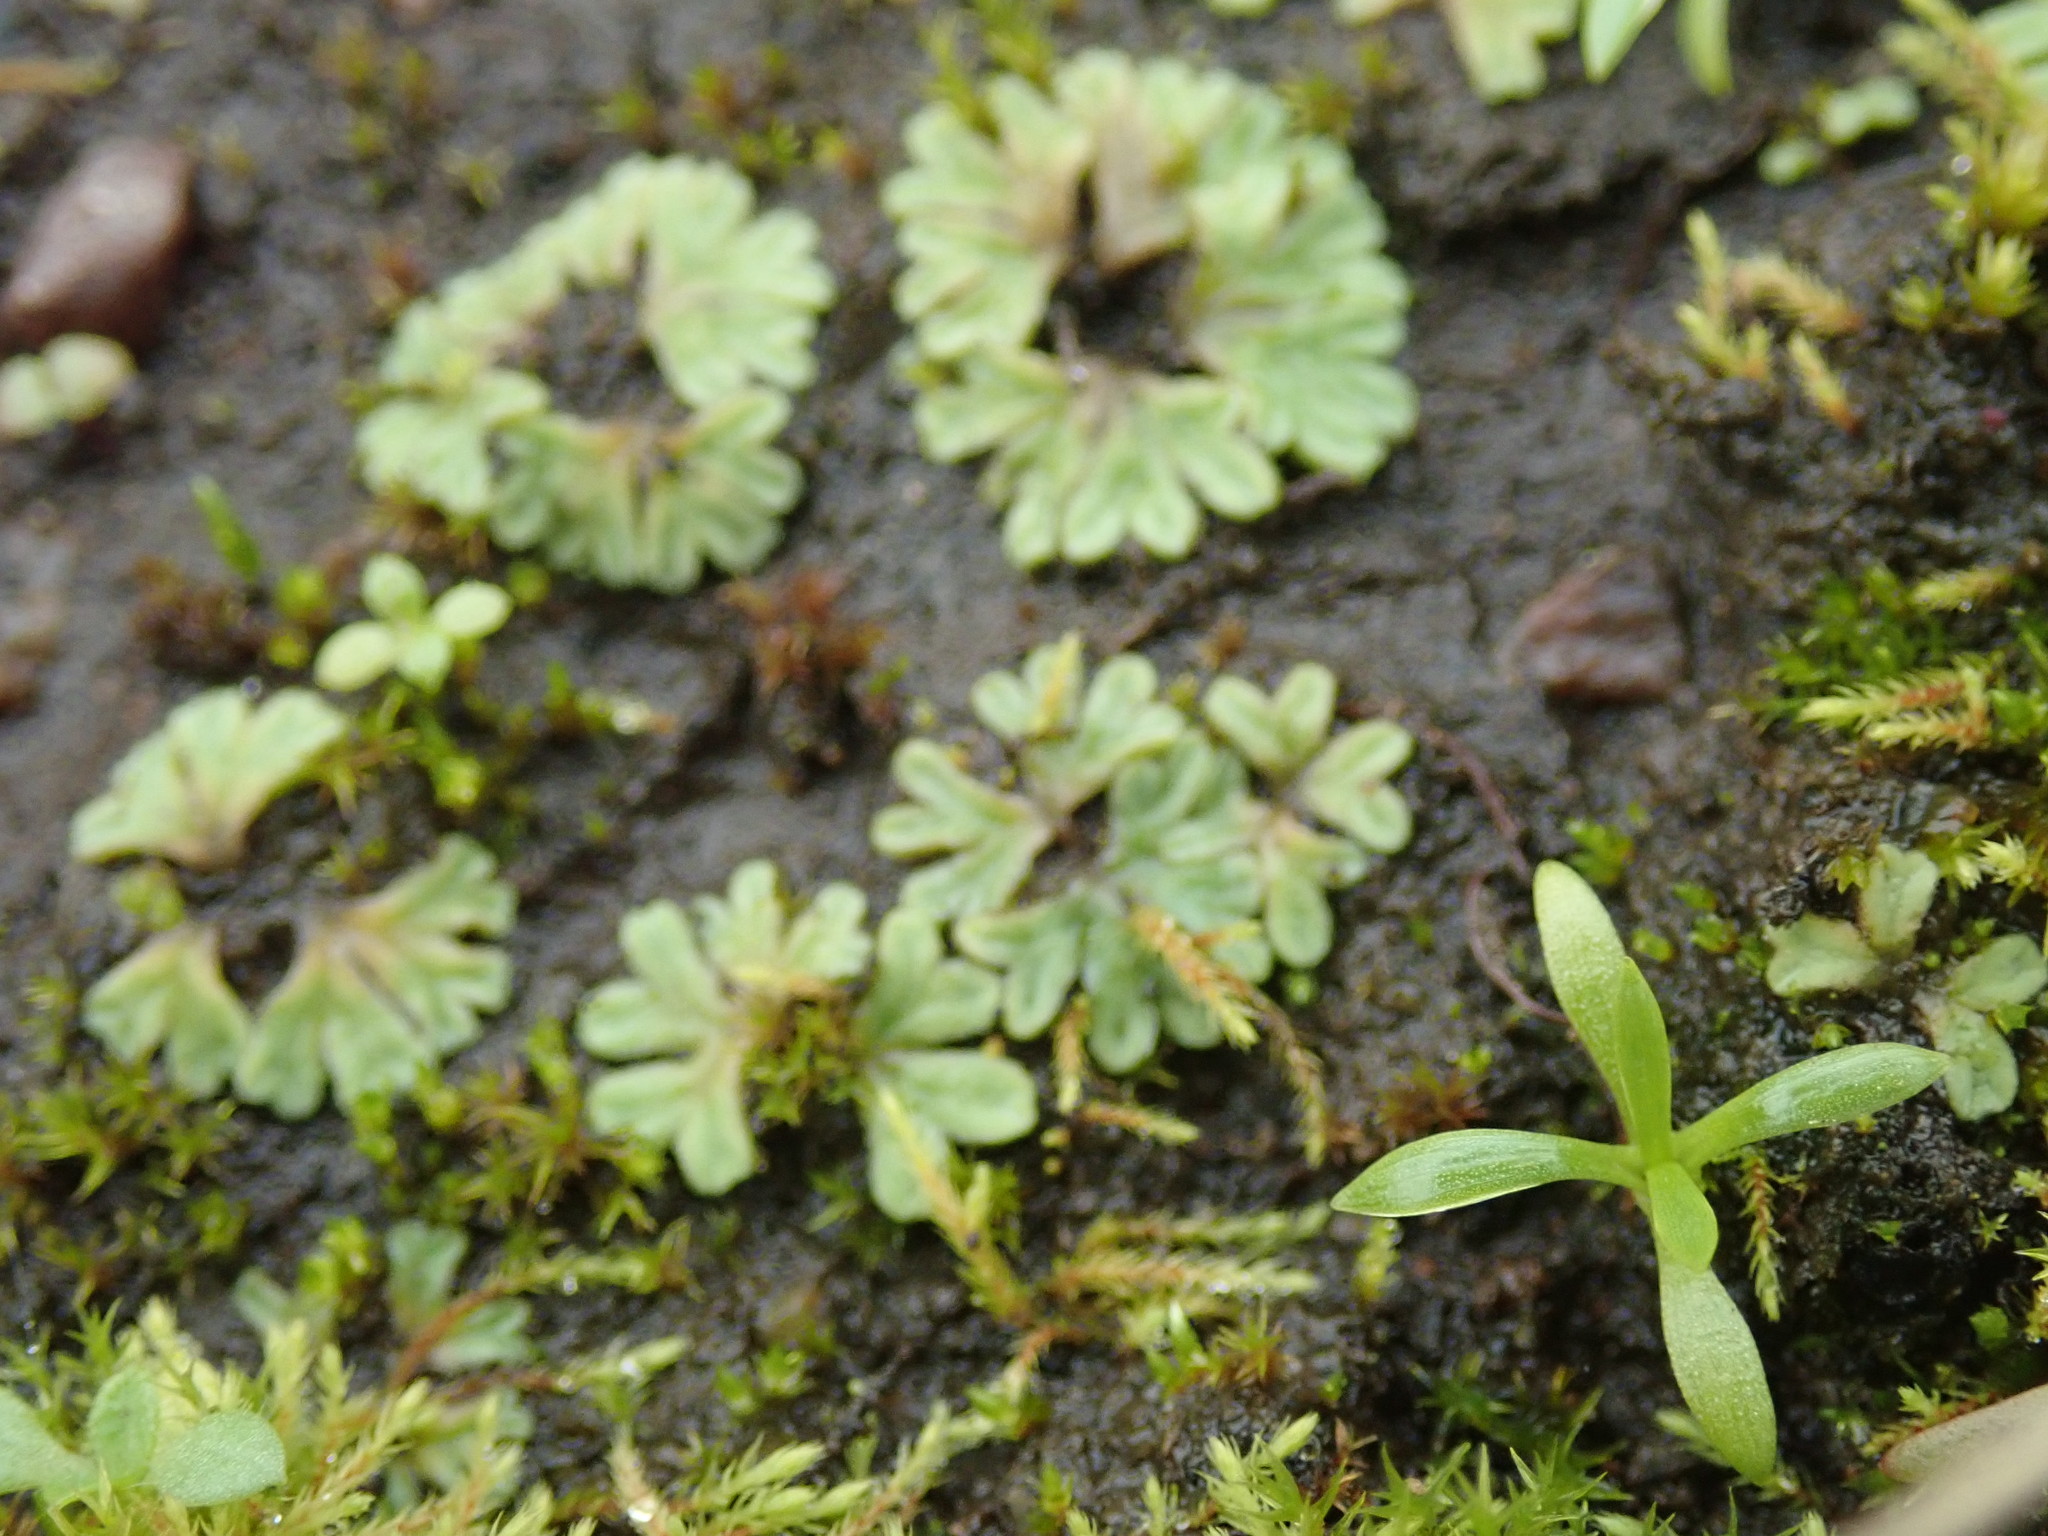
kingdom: Plantae
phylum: Marchantiophyta
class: Marchantiopsida
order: Marchantiales
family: Ricciaceae
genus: Riccia
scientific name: Riccia sorocarpa
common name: Common crystalwort
